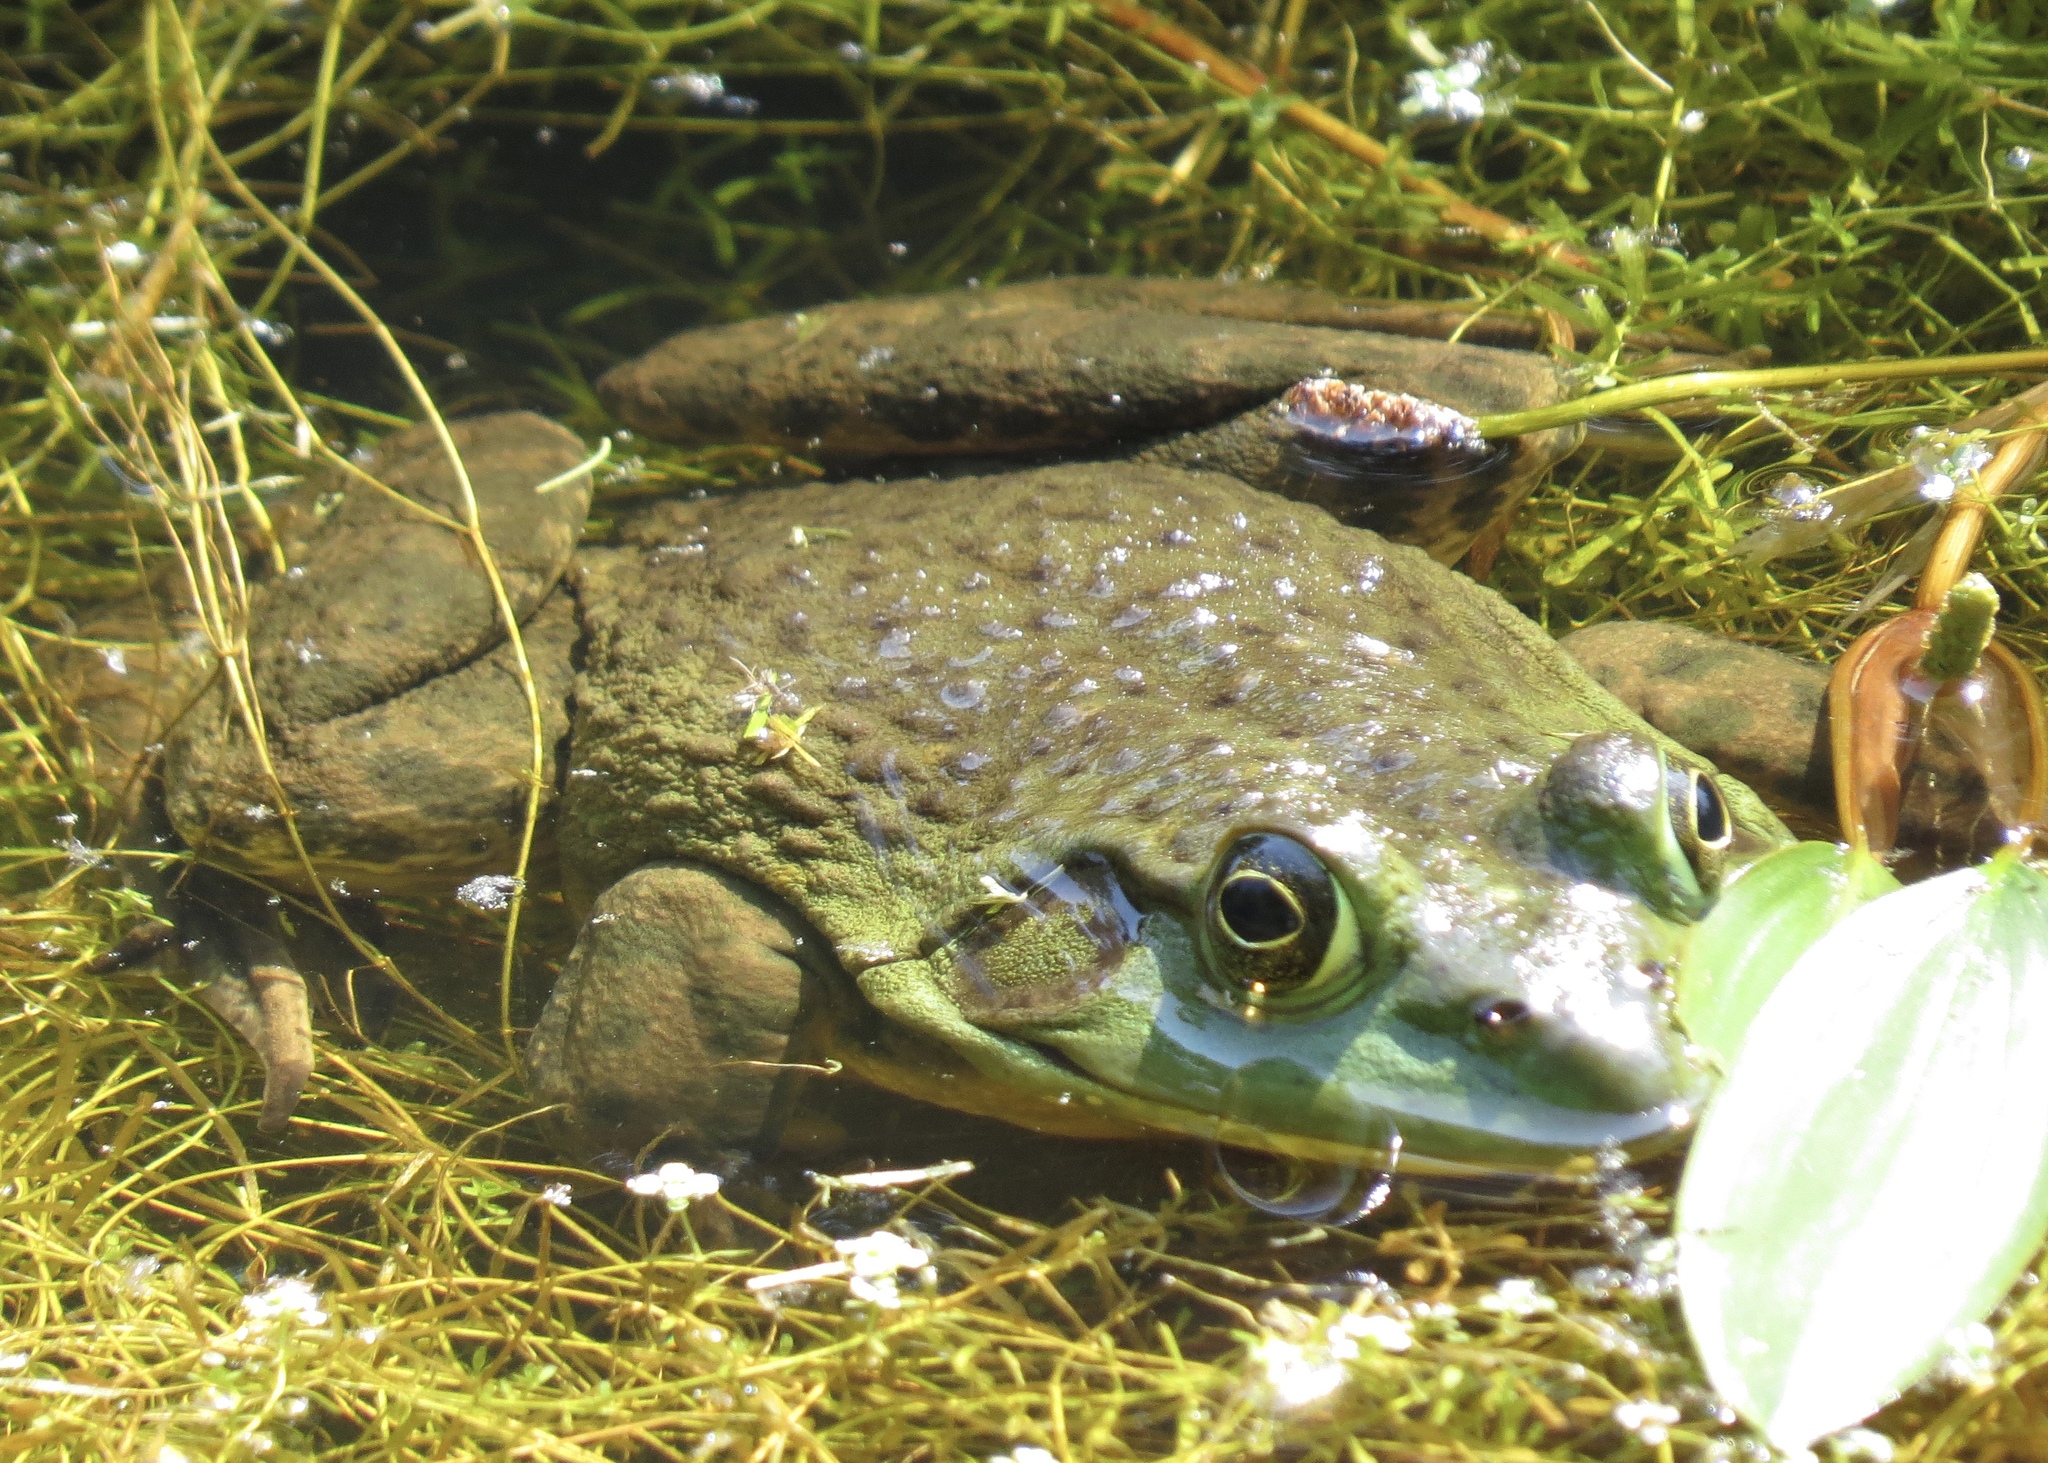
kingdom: Animalia
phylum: Chordata
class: Amphibia
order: Anura
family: Ranidae
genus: Lithobates
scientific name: Lithobates catesbeianus
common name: American bullfrog
